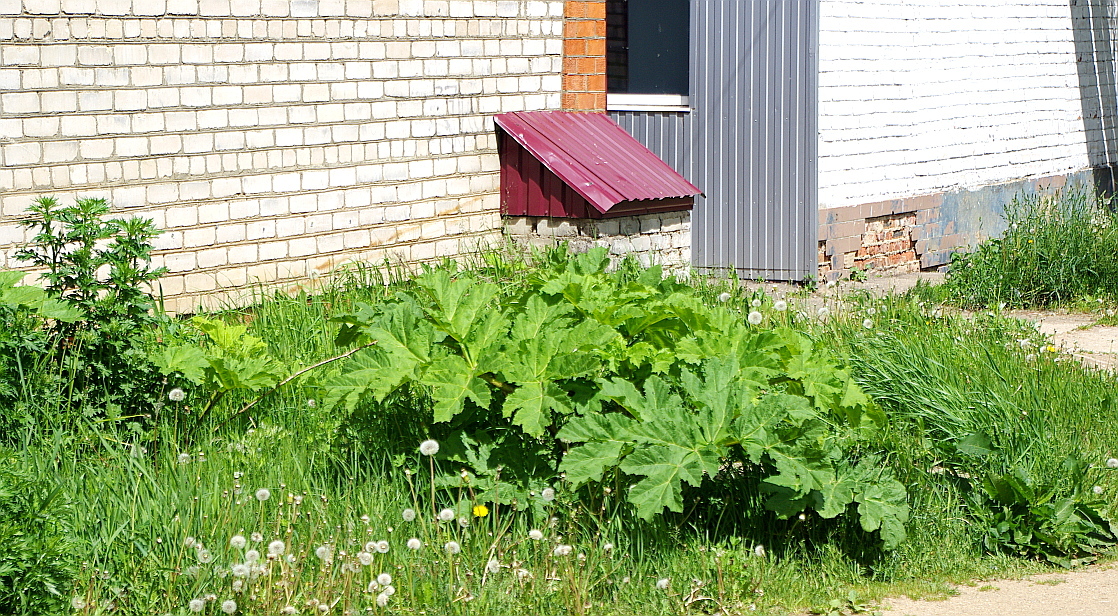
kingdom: Plantae
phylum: Tracheophyta
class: Magnoliopsida
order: Apiales
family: Apiaceae
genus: Heracleum
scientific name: Heracleum sosnowskyi
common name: Sosnowsky's hogweed
